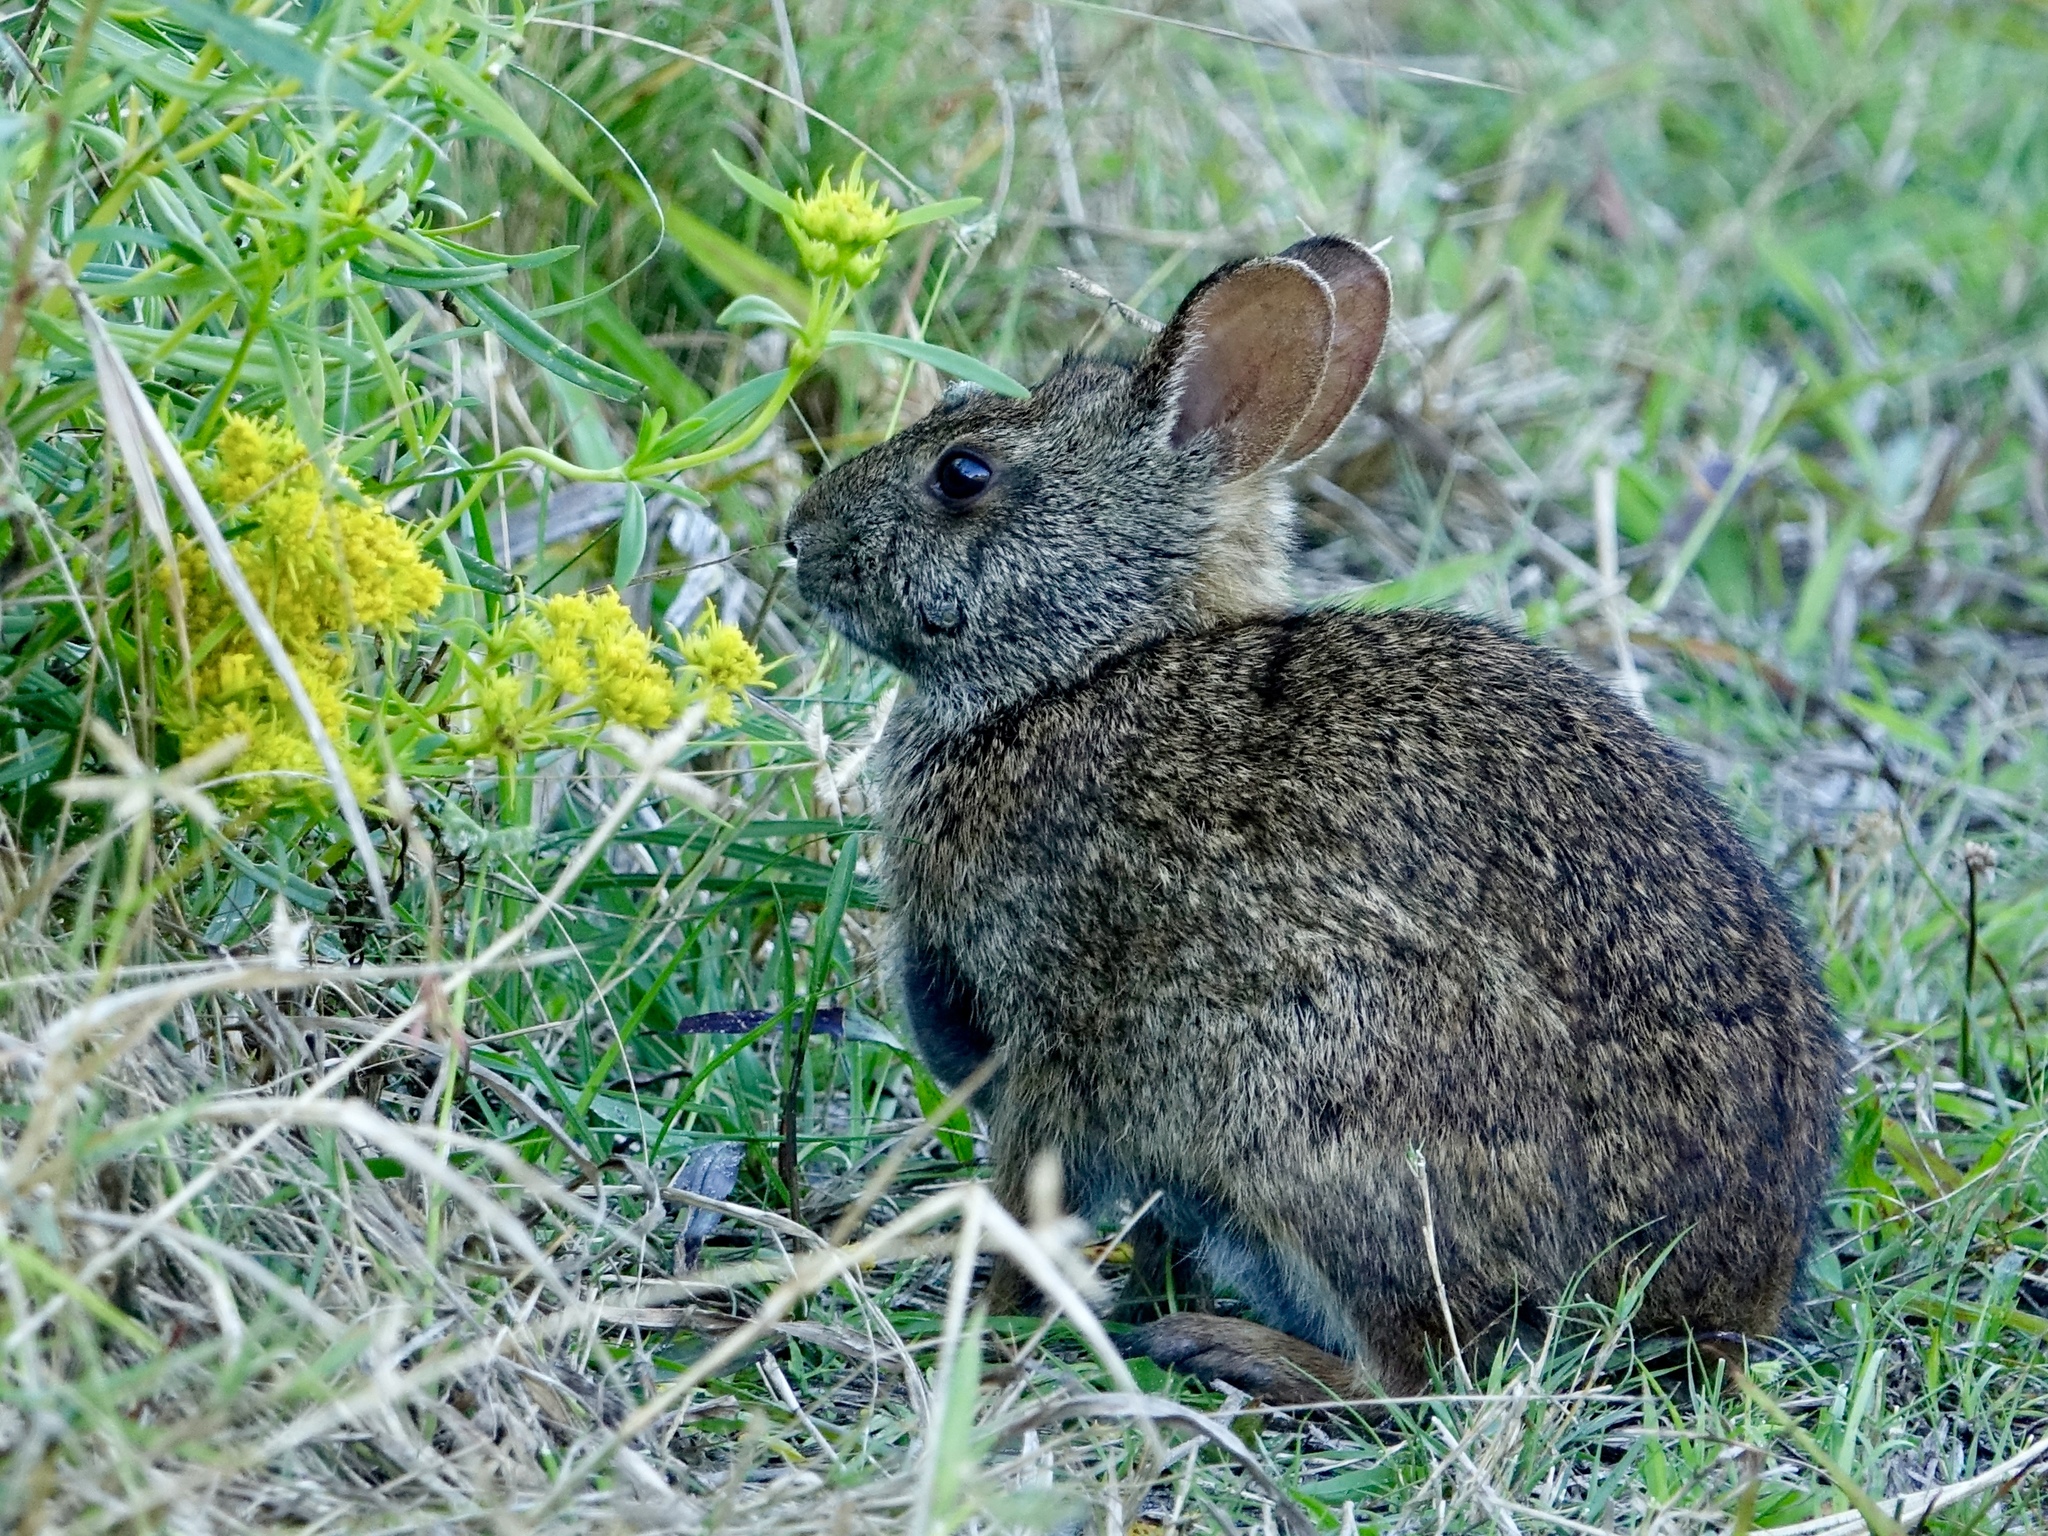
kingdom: Animalia
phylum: Chordata
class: Mammalia
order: Lagomorpha
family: Leporidae
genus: Sylvilagus
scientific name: Sylvilagus palustris
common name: Marsh rabbit
